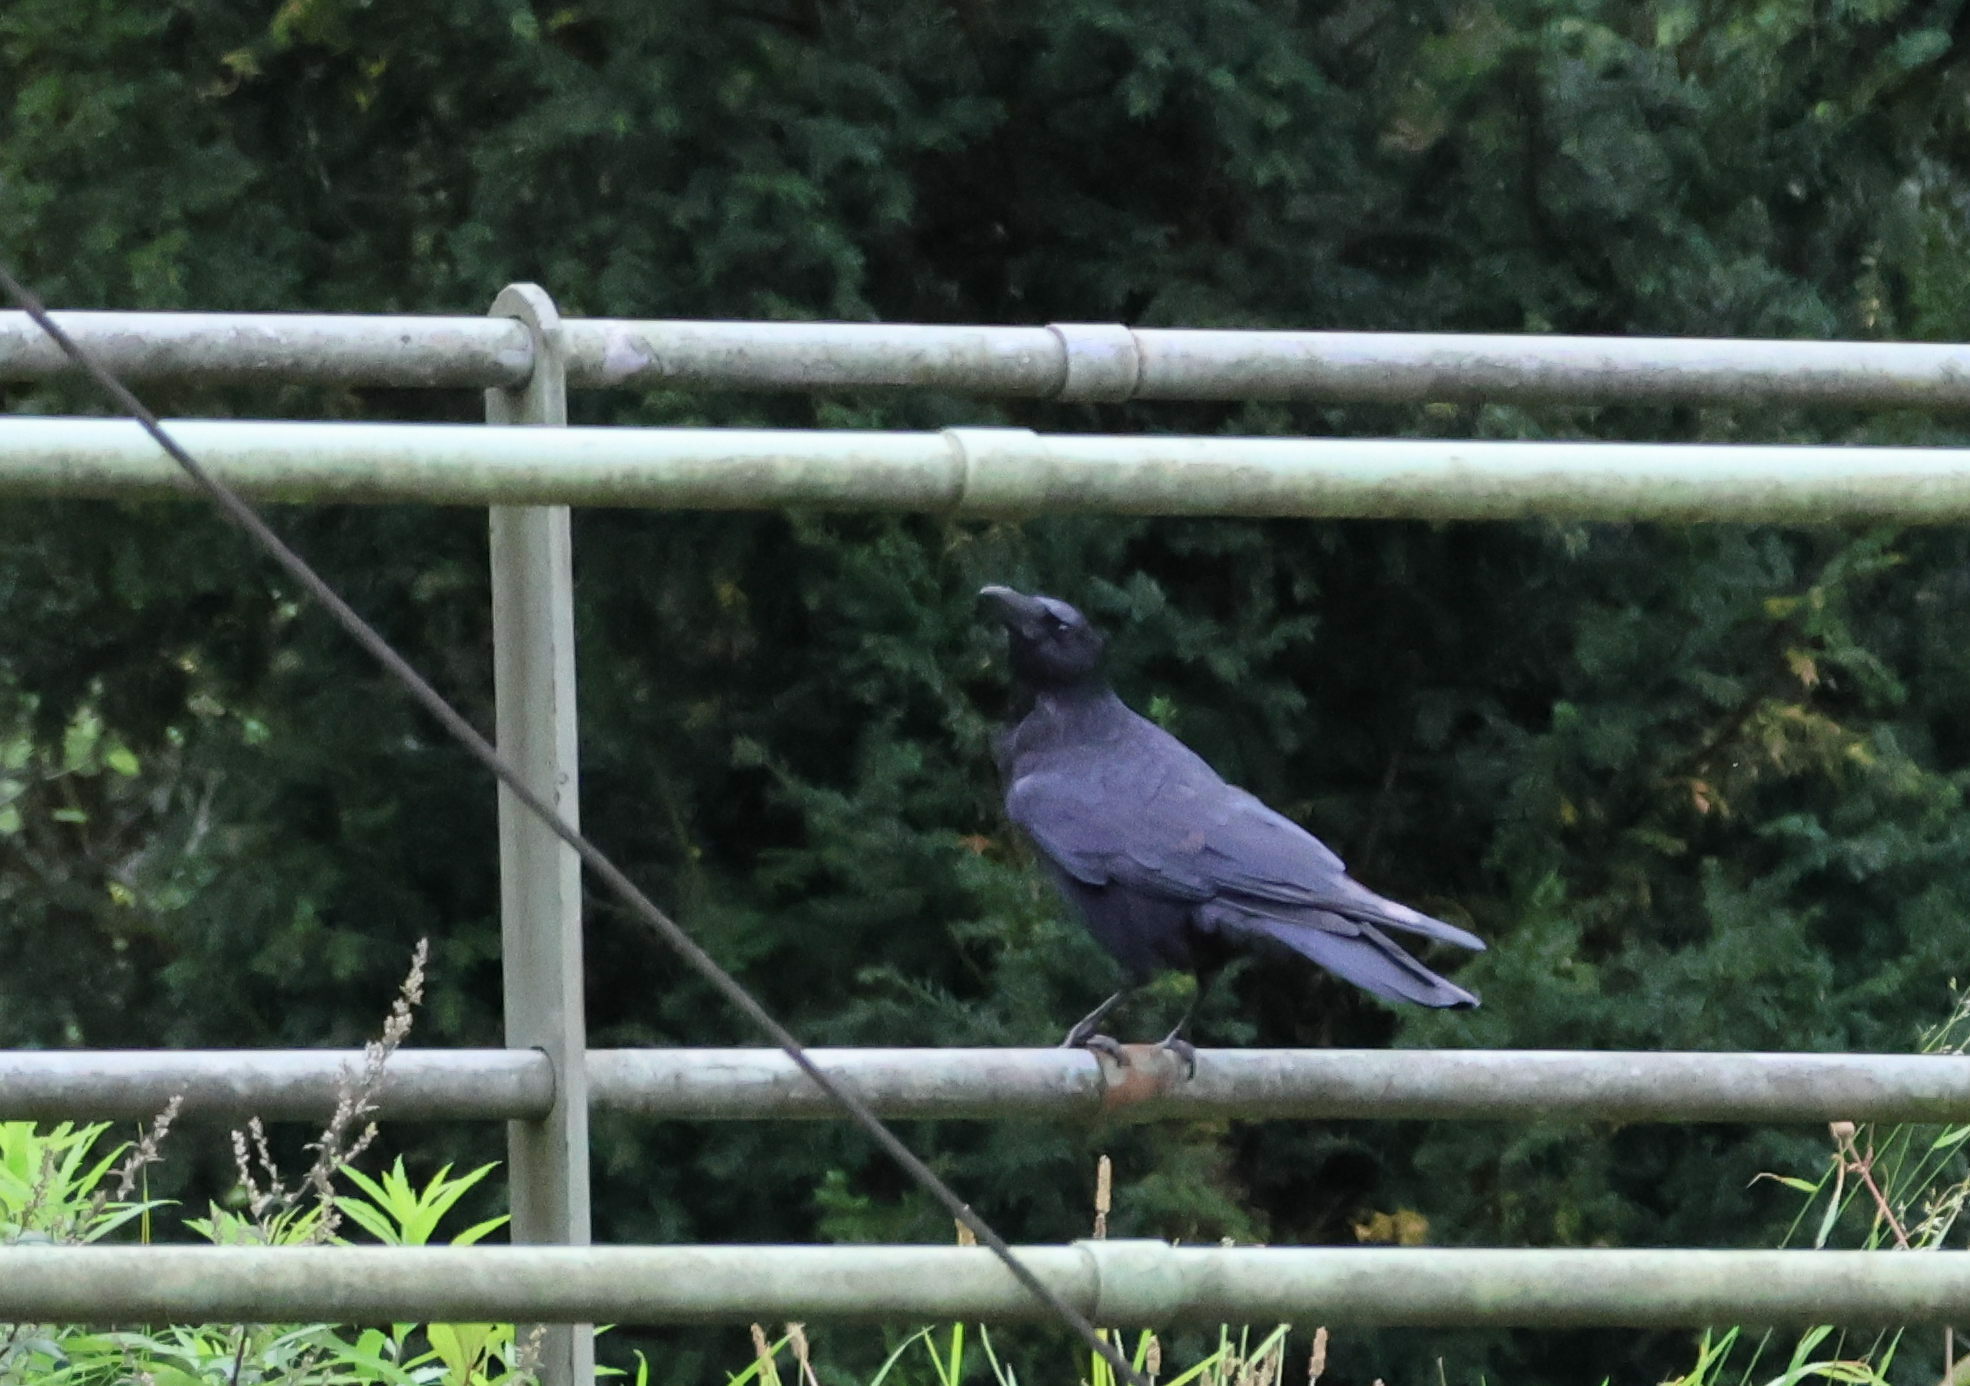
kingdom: Animalia
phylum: Chordata
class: Aves
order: Passeriformes
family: Corvidae
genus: Corvus
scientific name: Corvus corone
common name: Carrion crow
